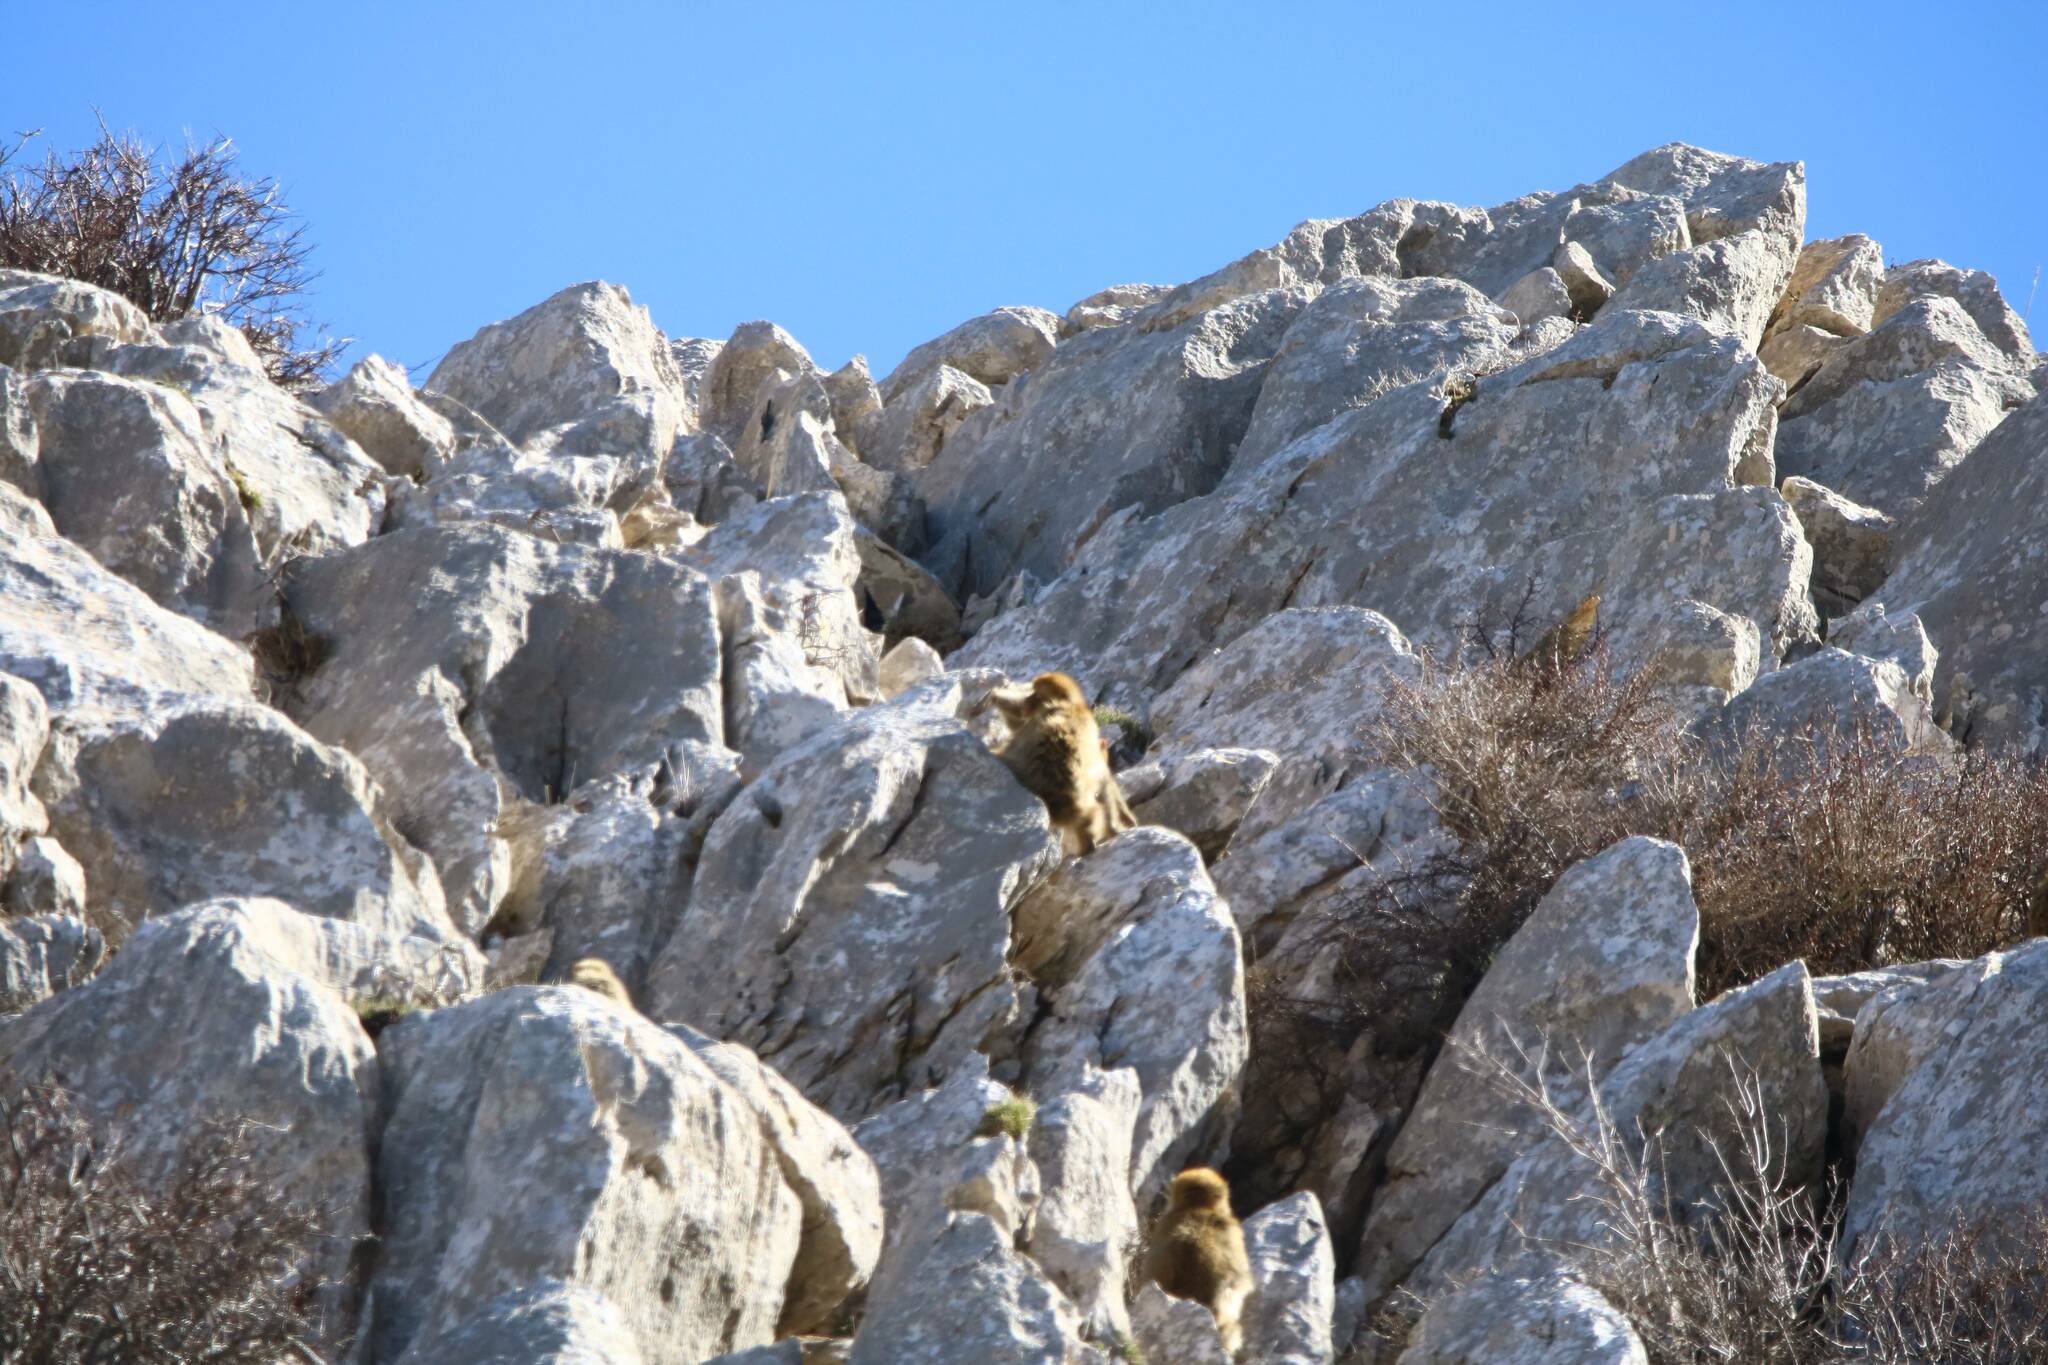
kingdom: Animalia
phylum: Chordata
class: Mammalia
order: Primates
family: Cercopithecidae
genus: Macaca
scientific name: Macaca sylvanus
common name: Barbary macaque
